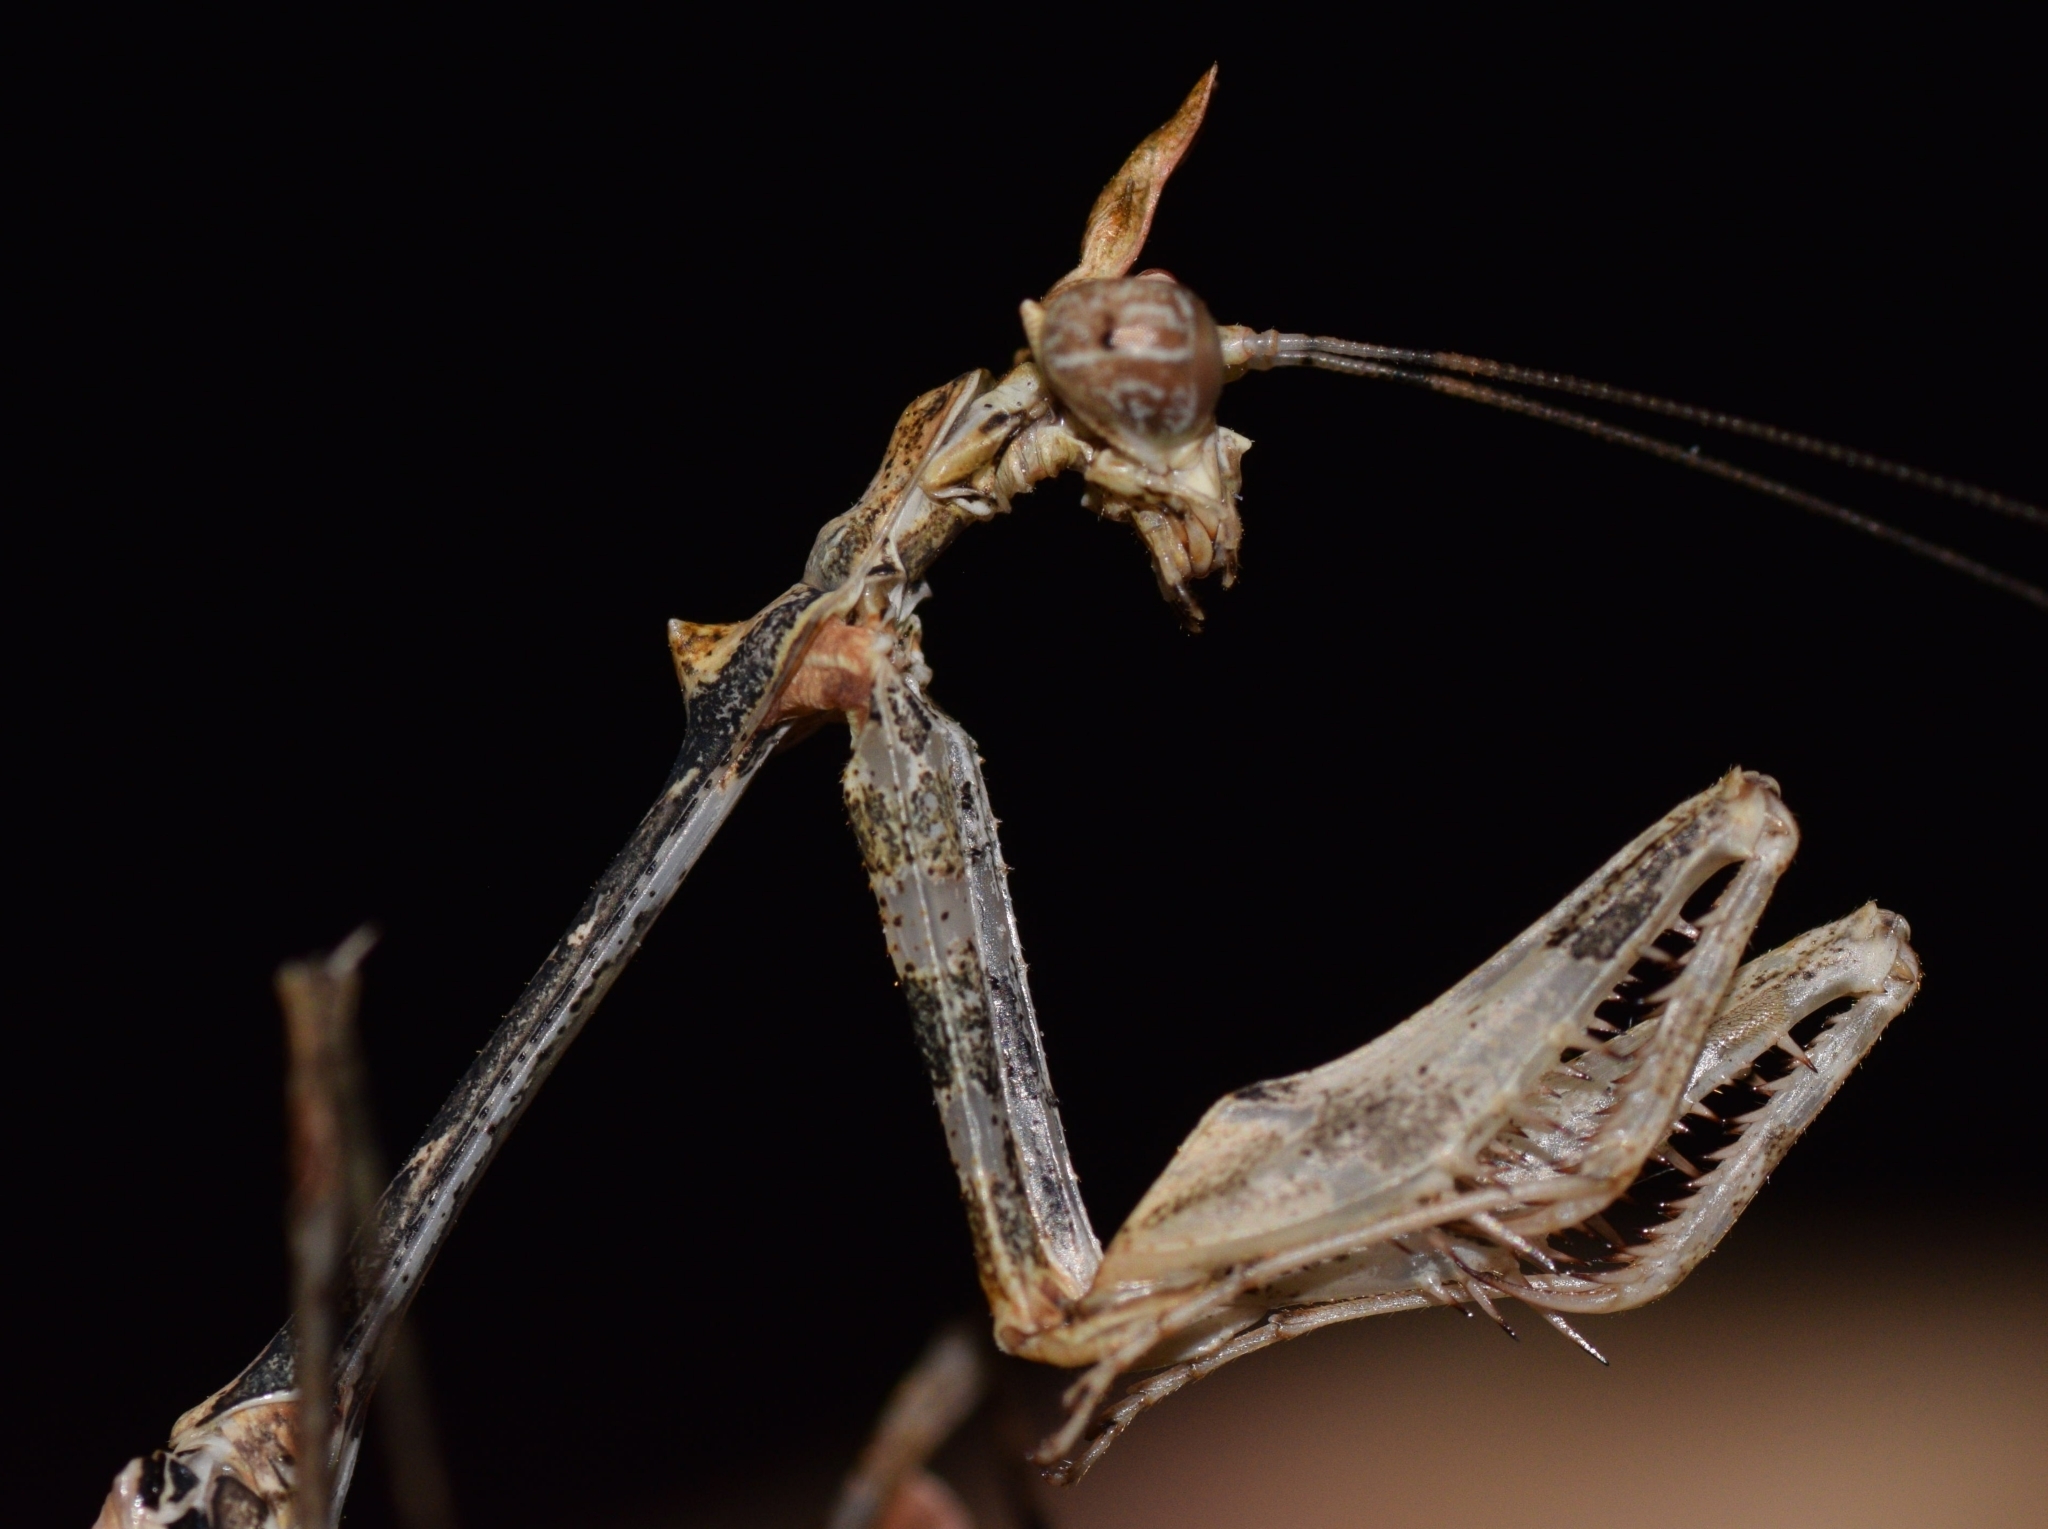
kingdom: Animalia
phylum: Arthropoda
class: Insecta
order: Mantodea
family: Hymenopodidae
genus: Sibylla
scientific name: Sibylla pretiosa
